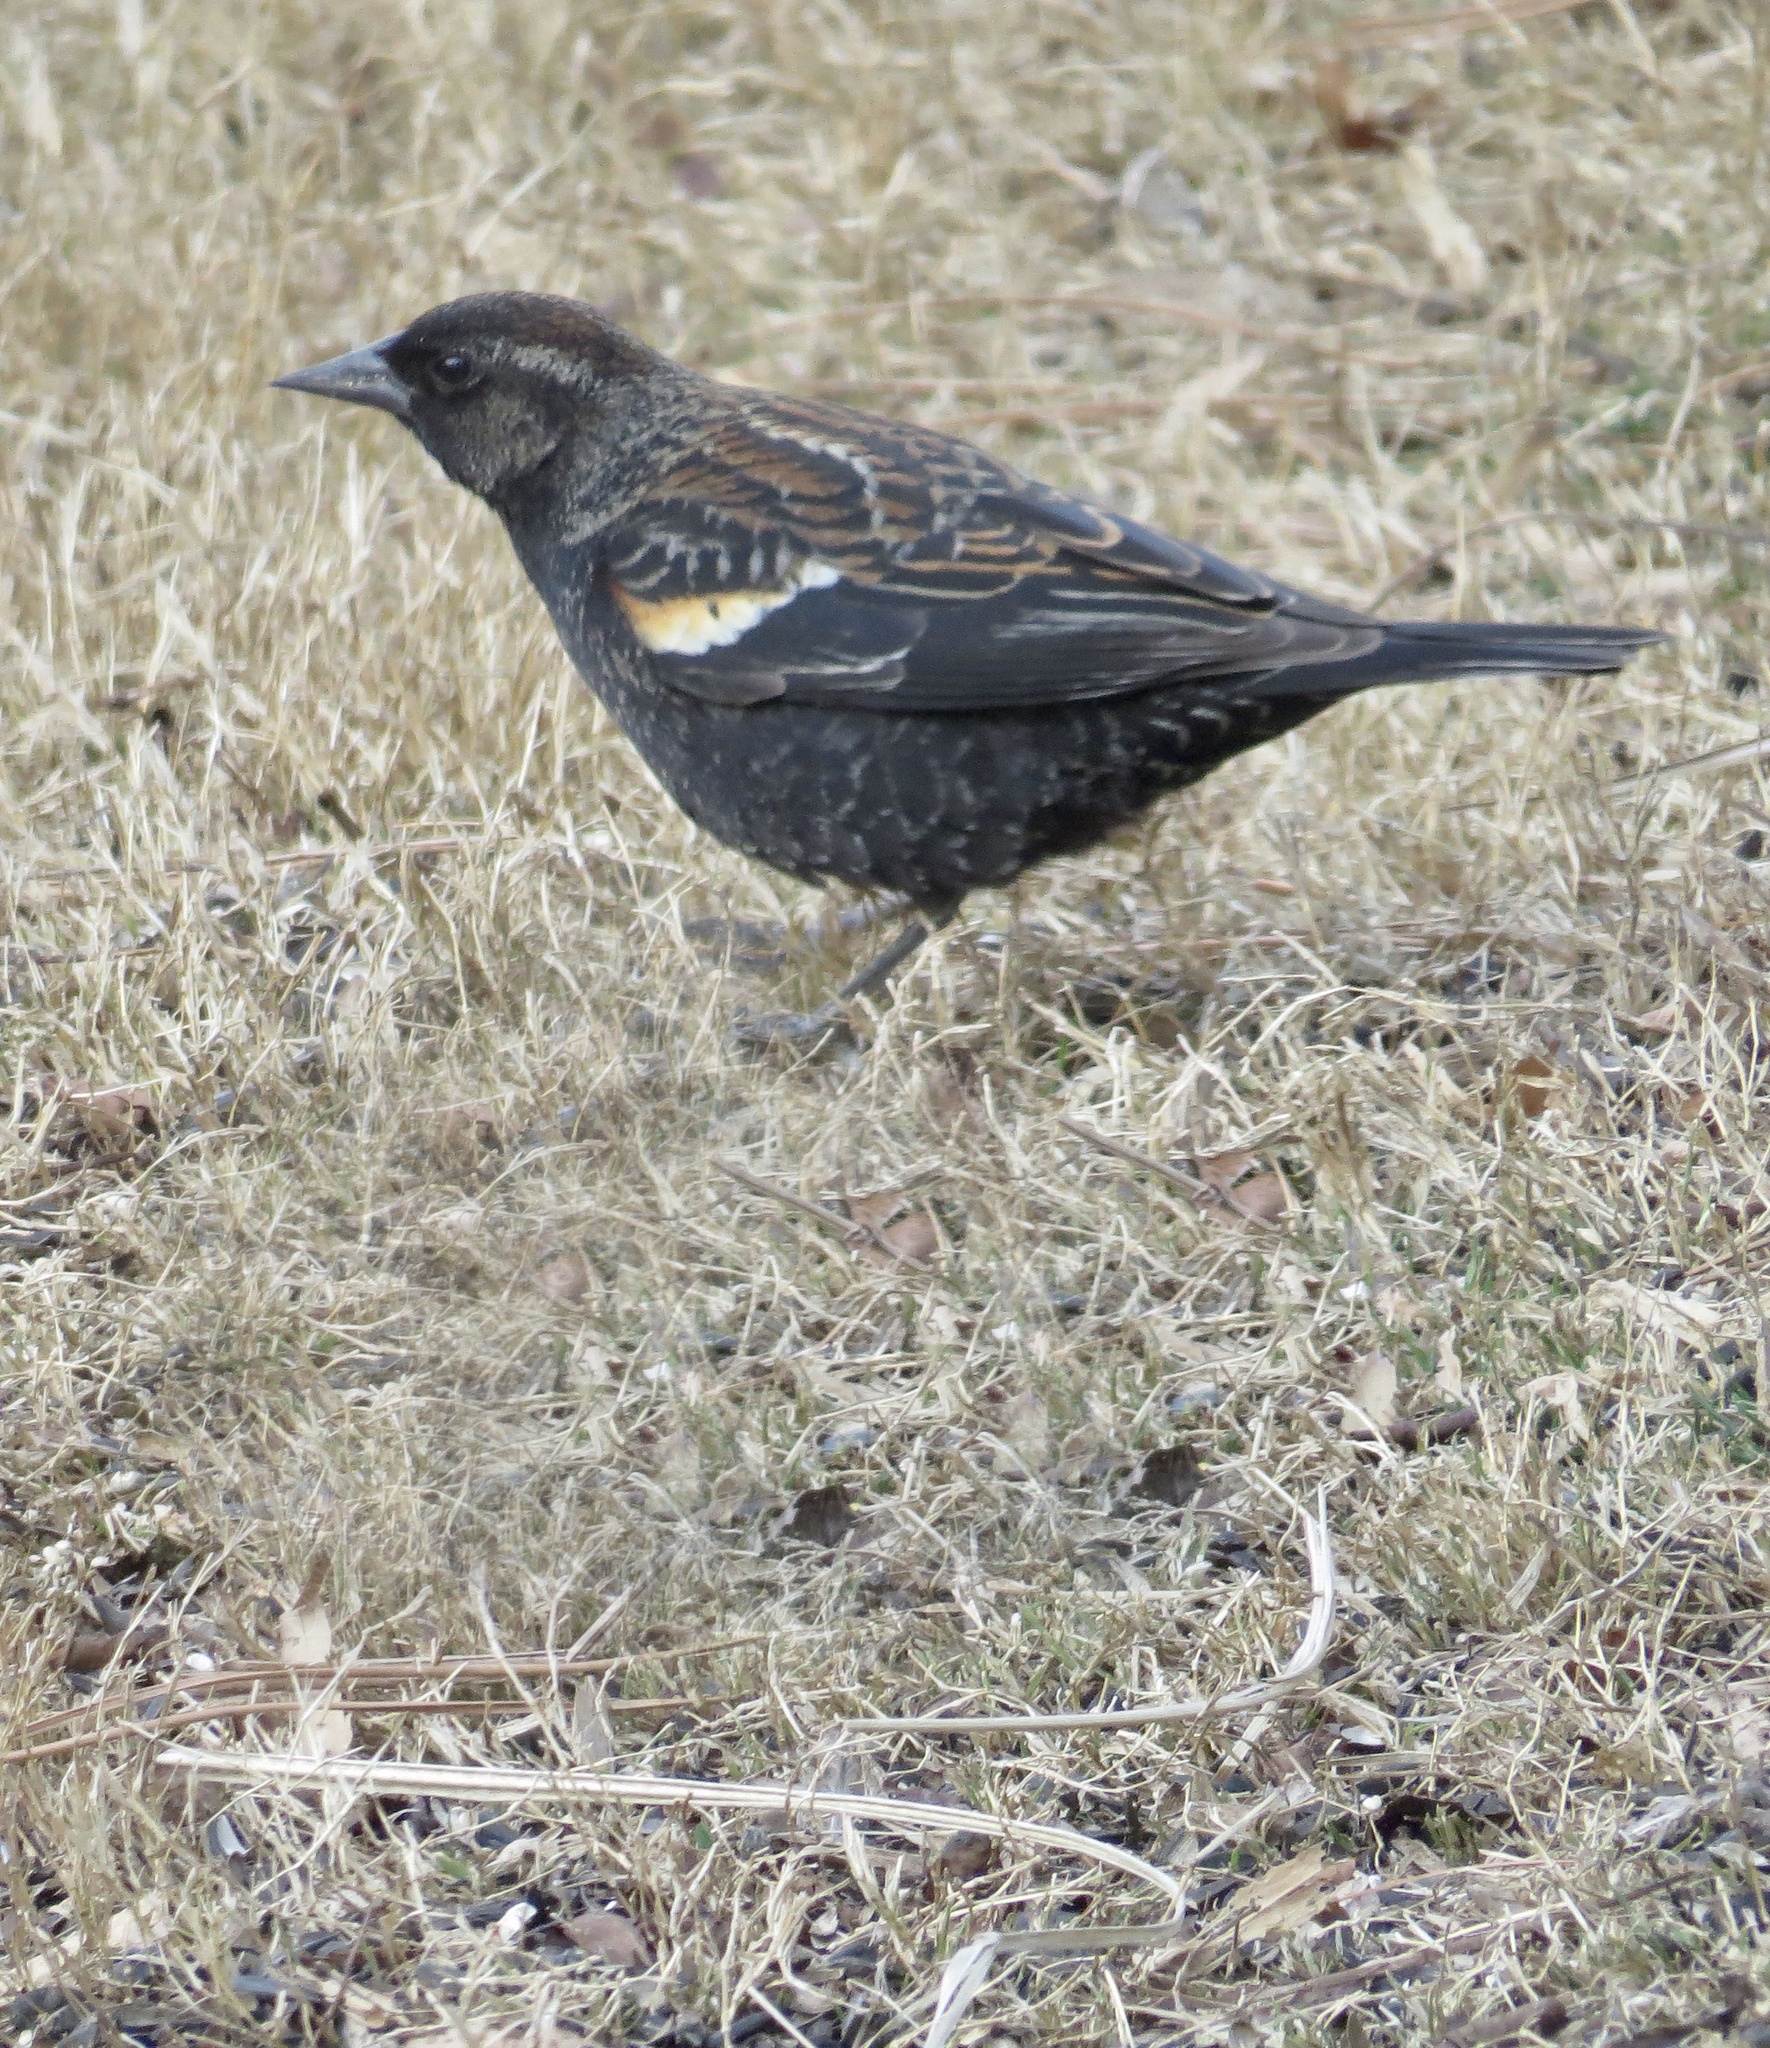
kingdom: Animalia
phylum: Chordata
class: Aves
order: Passeriformes
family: Icteridae
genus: Agelaius
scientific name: Agelaius phoeniceus
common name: Red-winged blackbird
